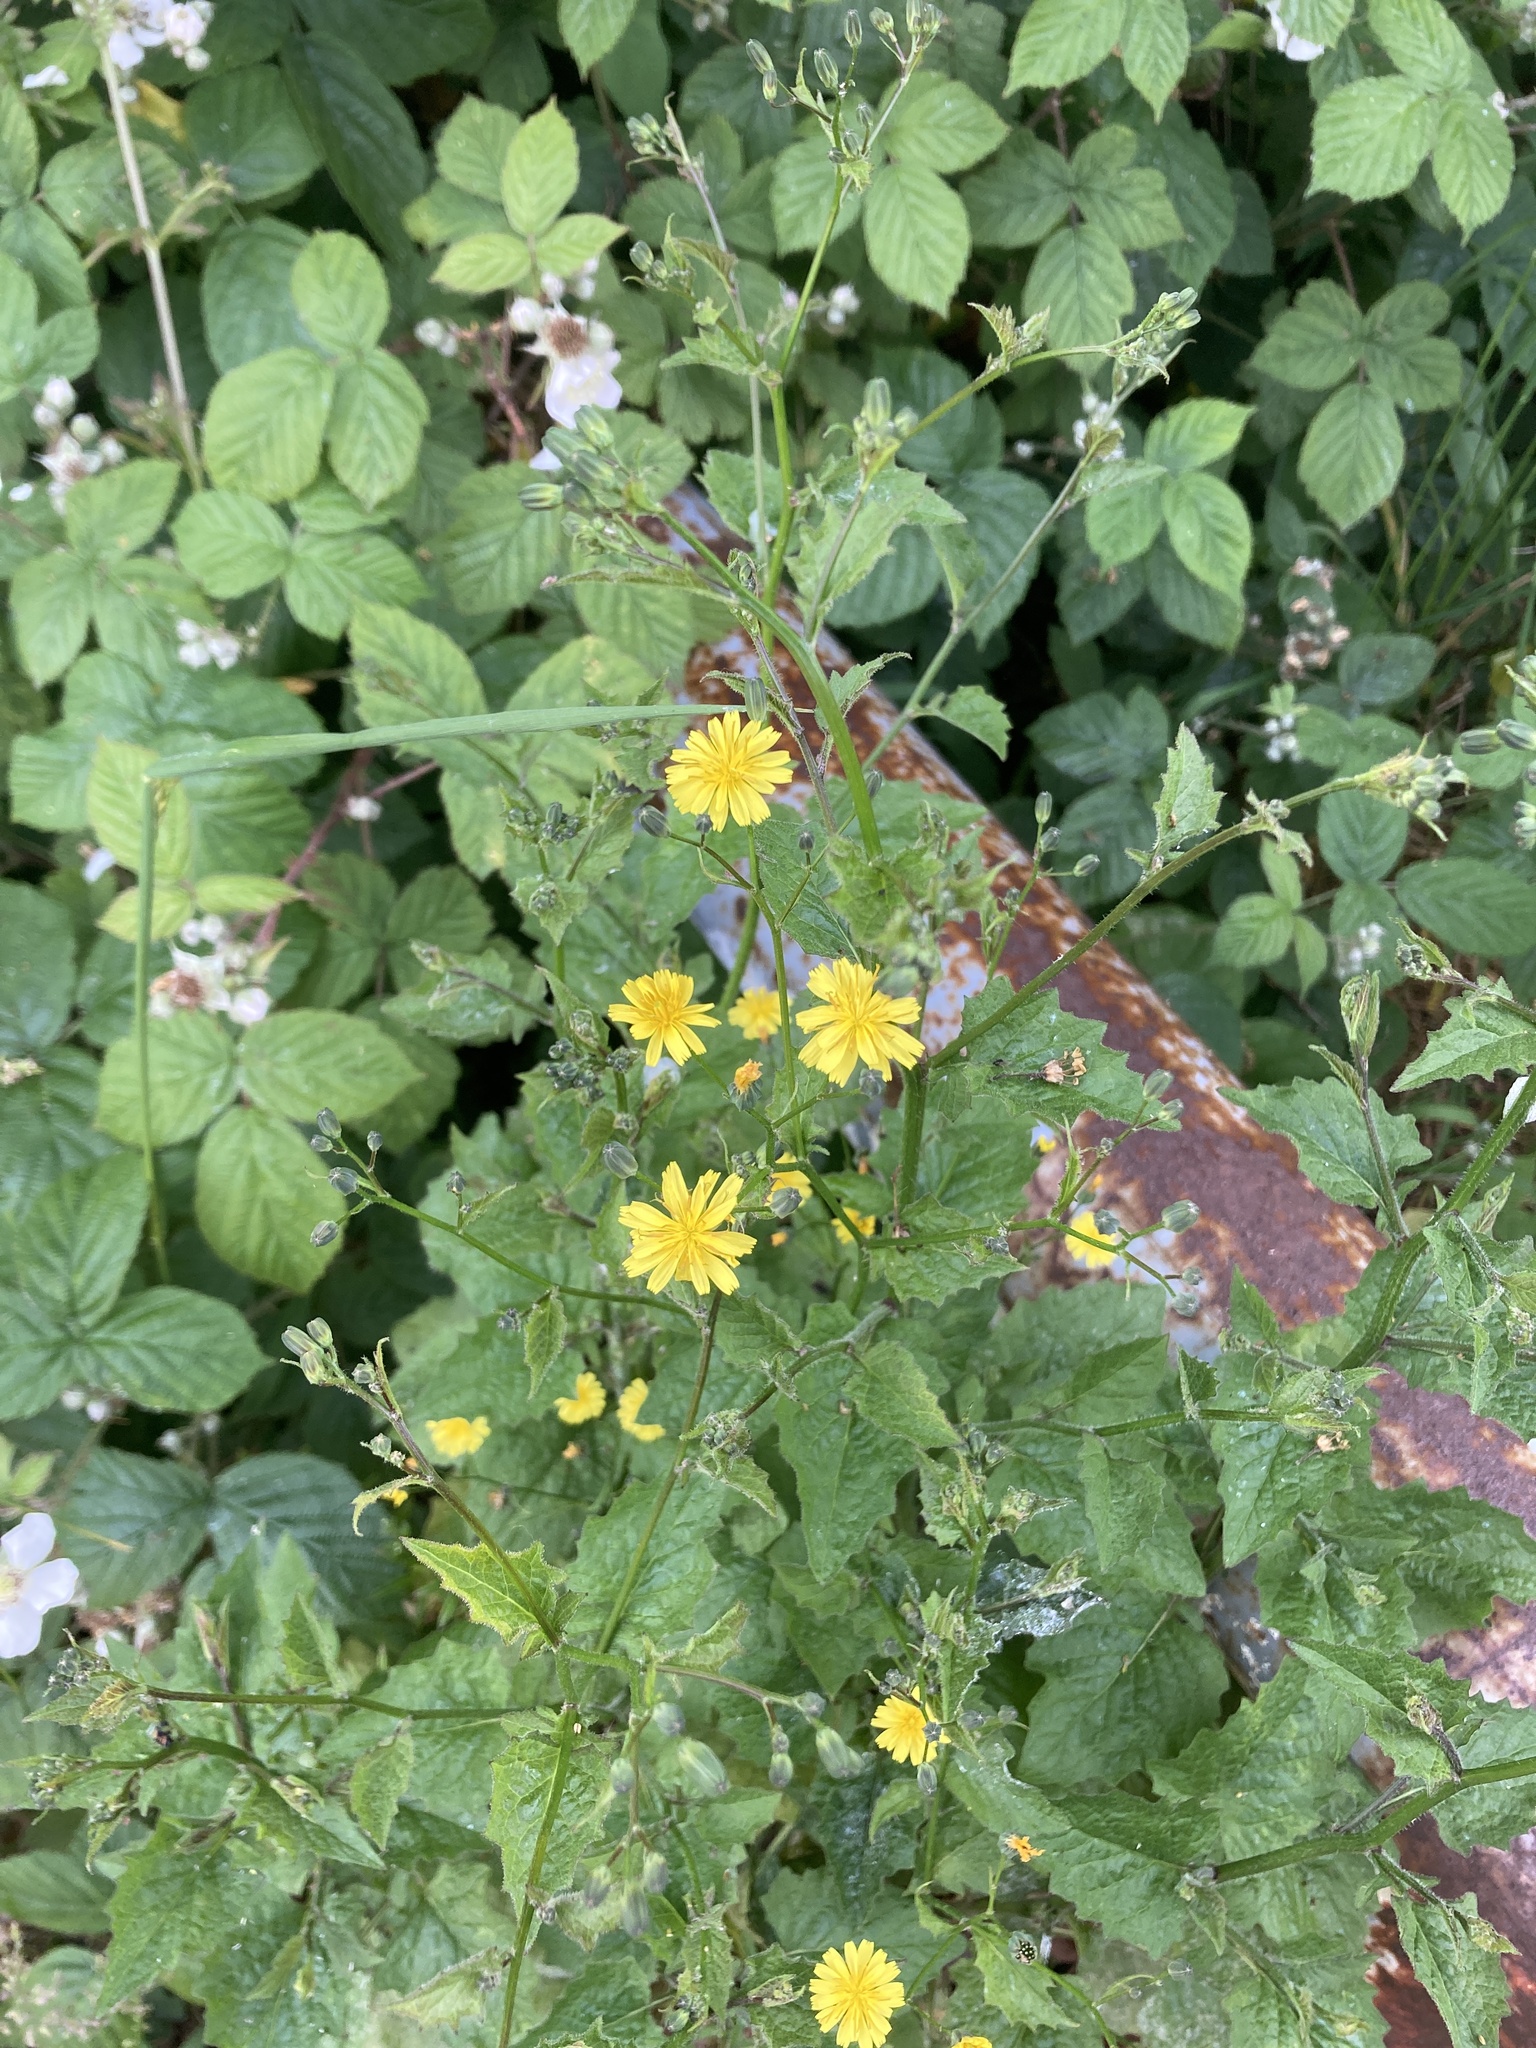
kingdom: Plantae
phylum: Tracheophyta
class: Magnoliopsida
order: Asterales
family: Asteraceae
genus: Lapsana
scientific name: Lapsana communis
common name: Nipplewort
